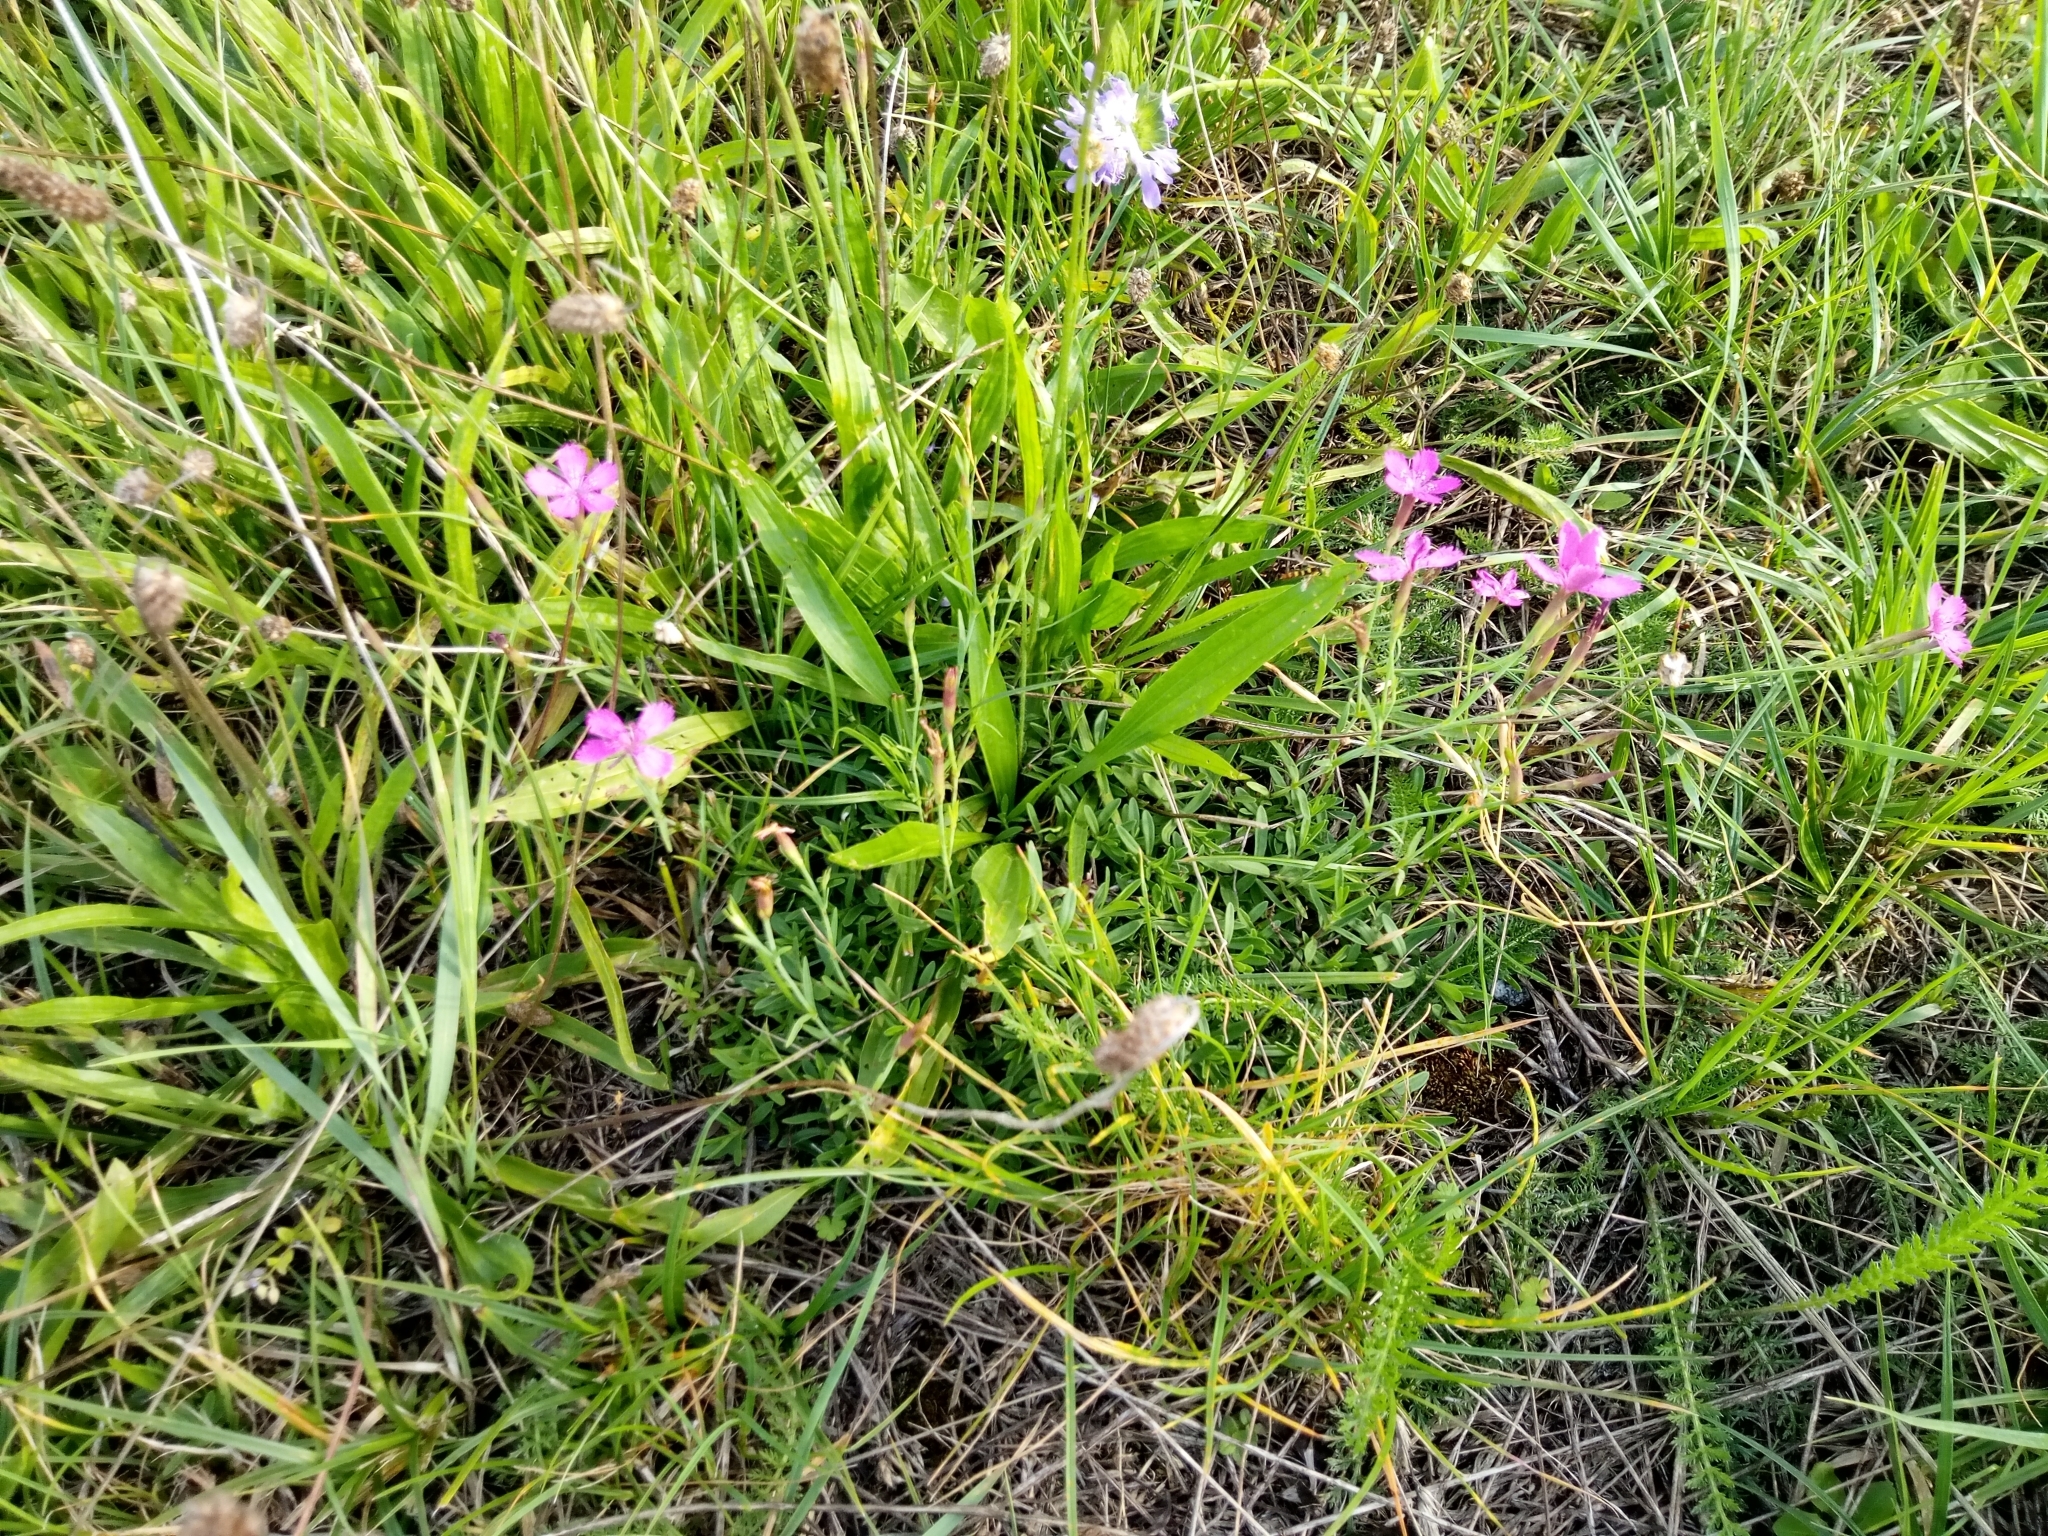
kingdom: Plantae
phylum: Tracheophyta
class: Magnoliopsida
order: Caryophyllales
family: Caryophyllaceae
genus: Dianthus
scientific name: Dianthus deltoides
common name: Maiden pink
